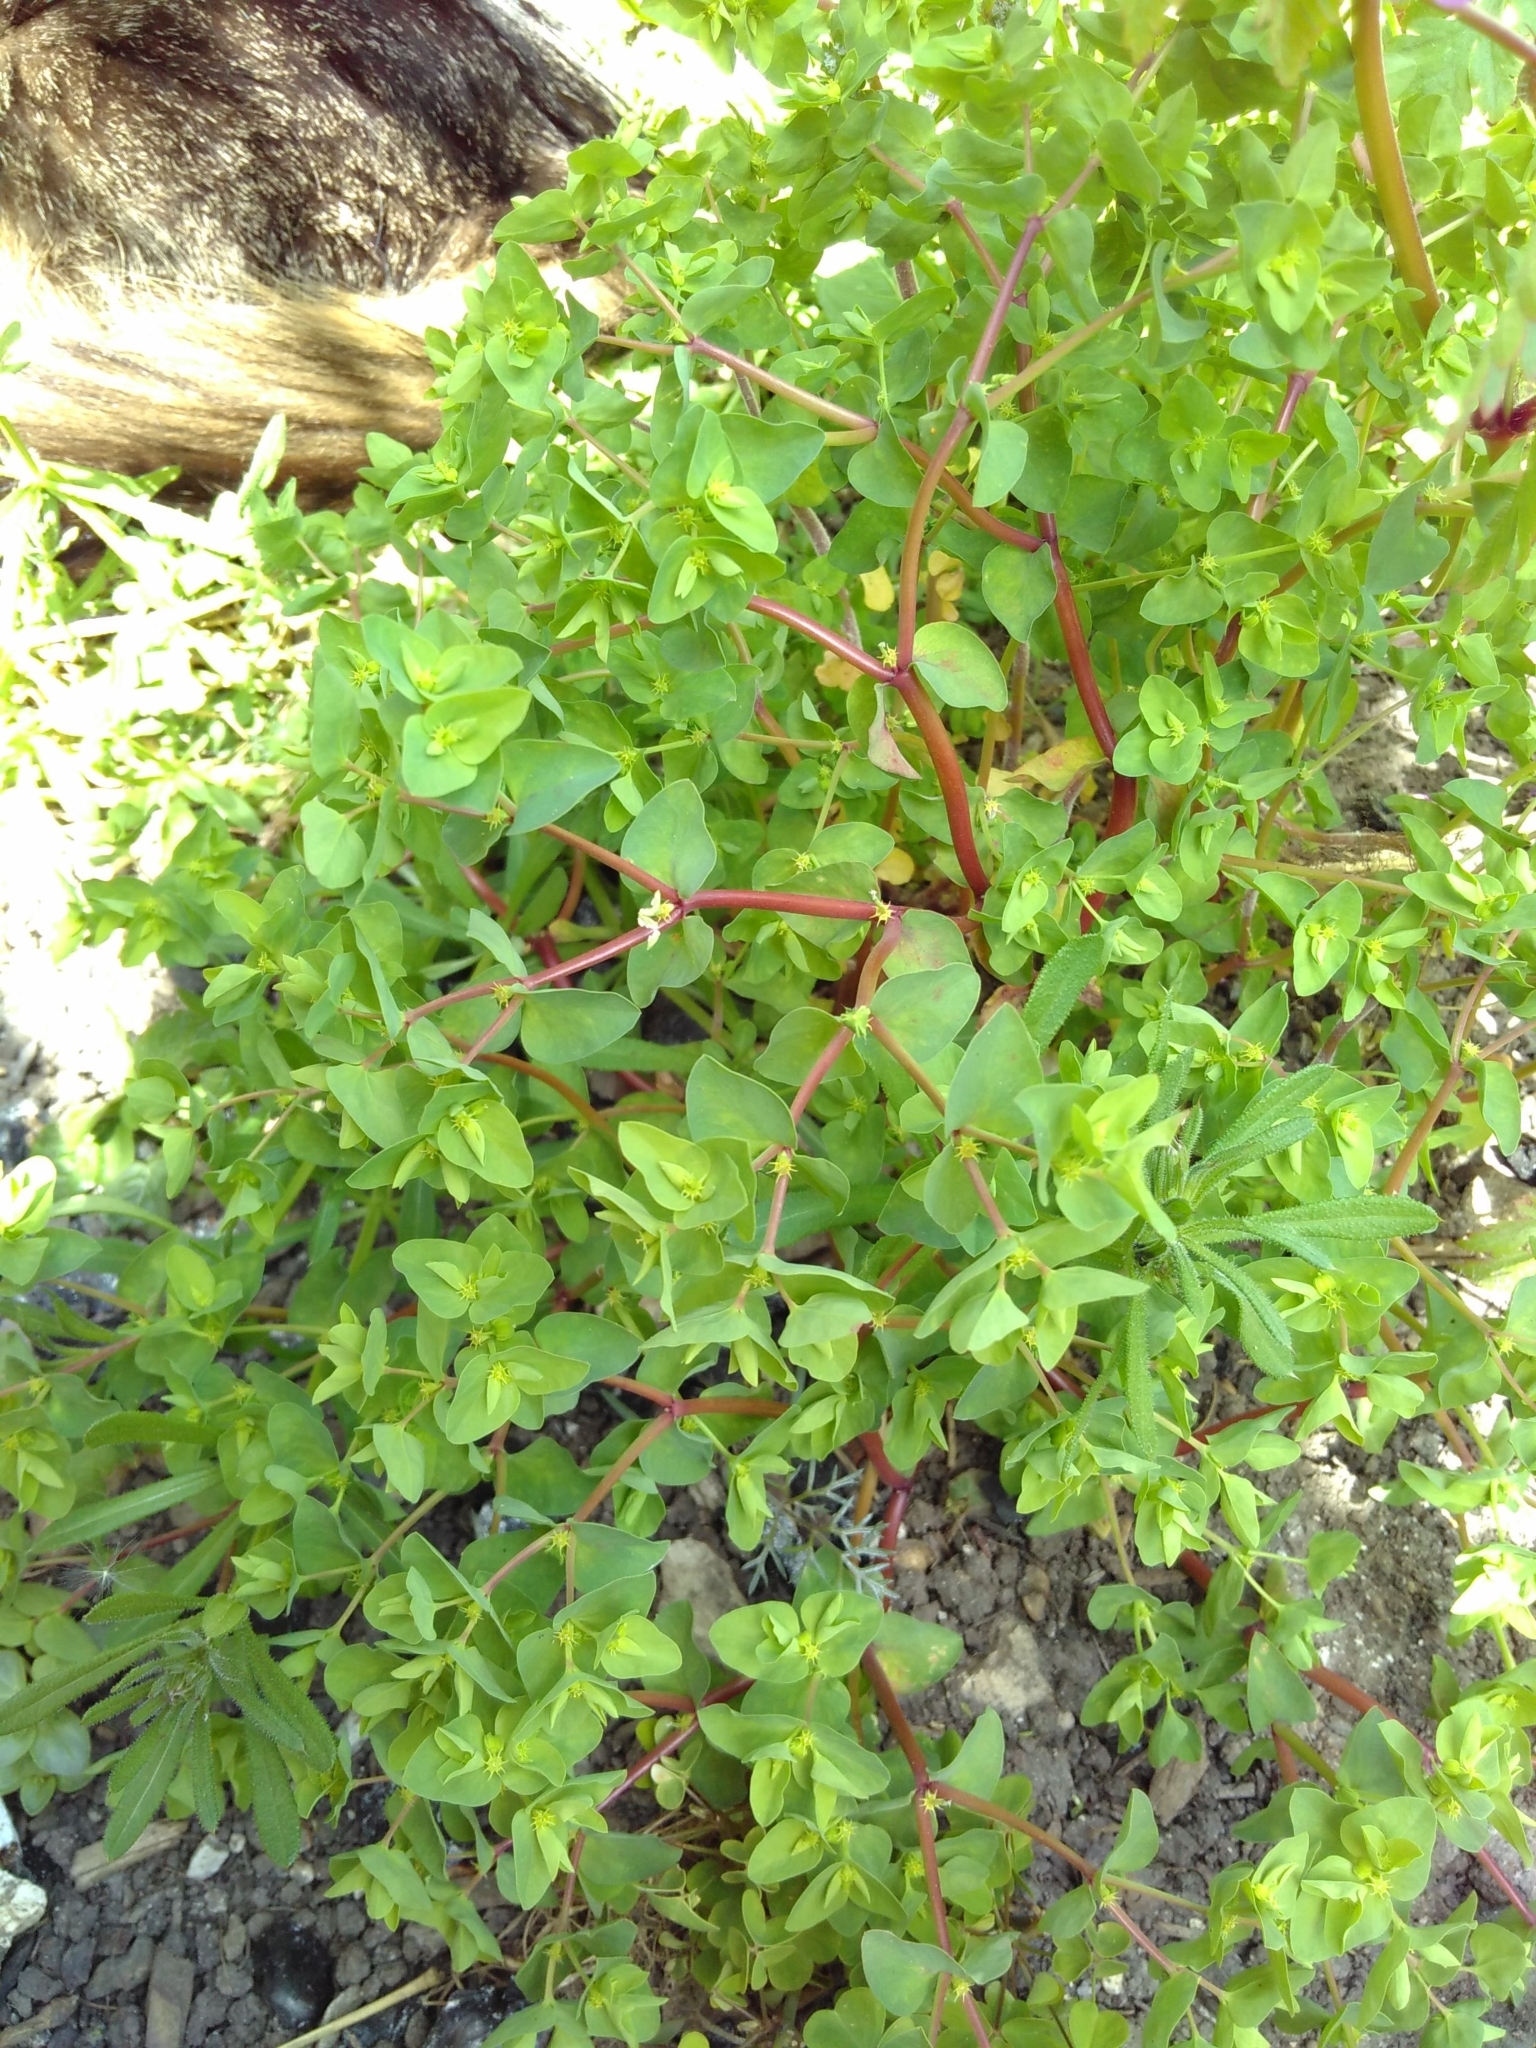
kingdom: Plantae
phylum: Tracheophyta
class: Magnoliopsida
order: Malpighiales
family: Euphorbiaceae
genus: Euphorbia
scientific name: Euphorbia peplus
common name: Petty spurge
